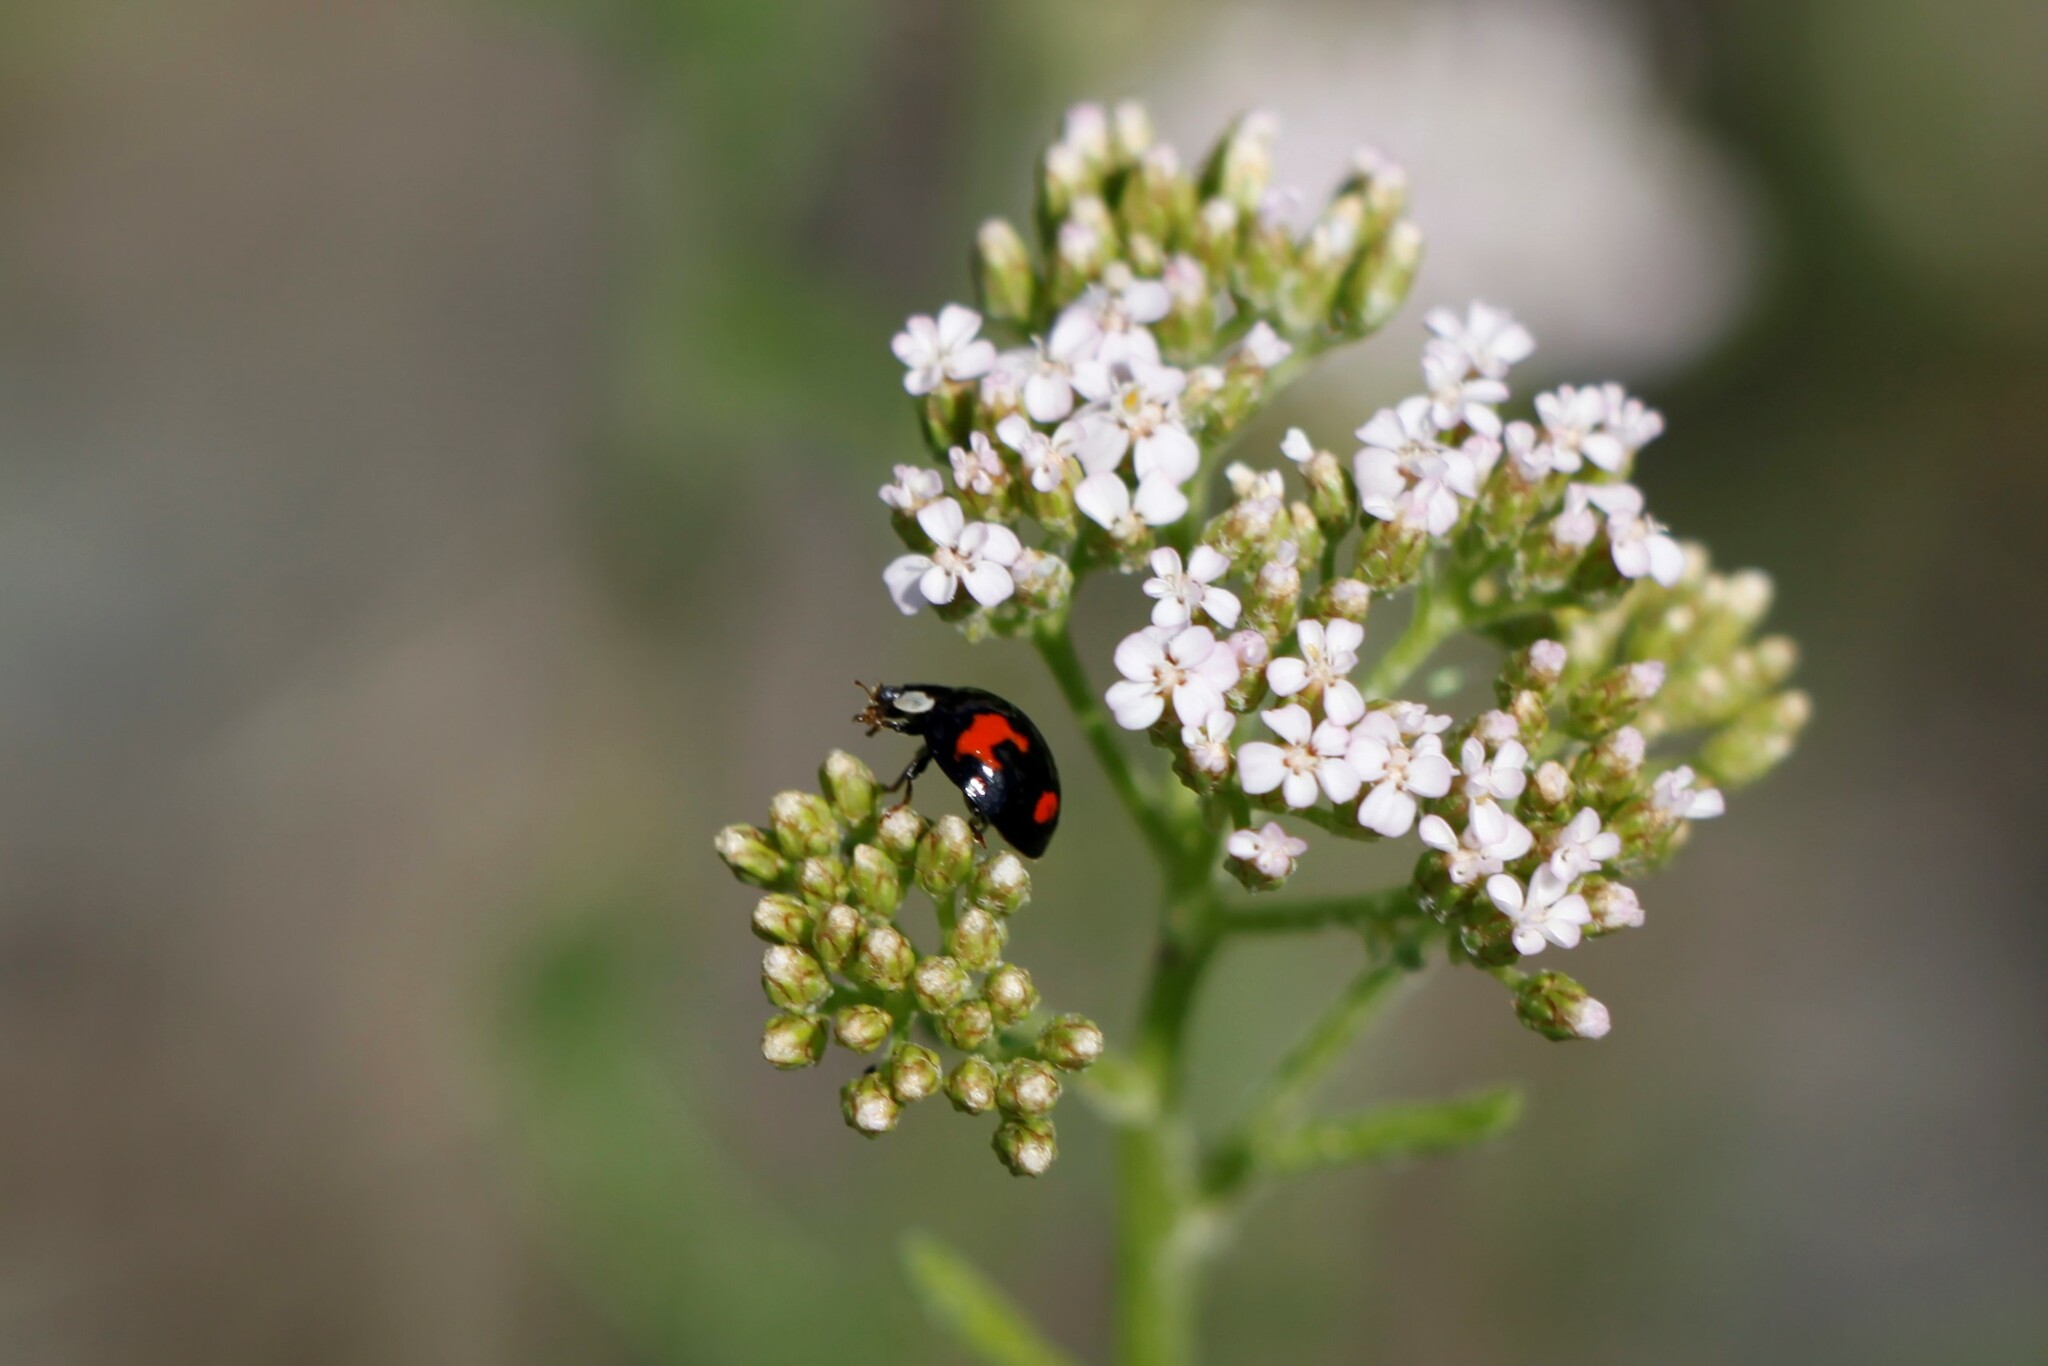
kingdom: Animalia
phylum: Arthropoda
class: Insecta
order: Coleoptera
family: Coccinellidae
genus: Harmonia
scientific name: Harmonia axyridis
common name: Harlequin ladybird
